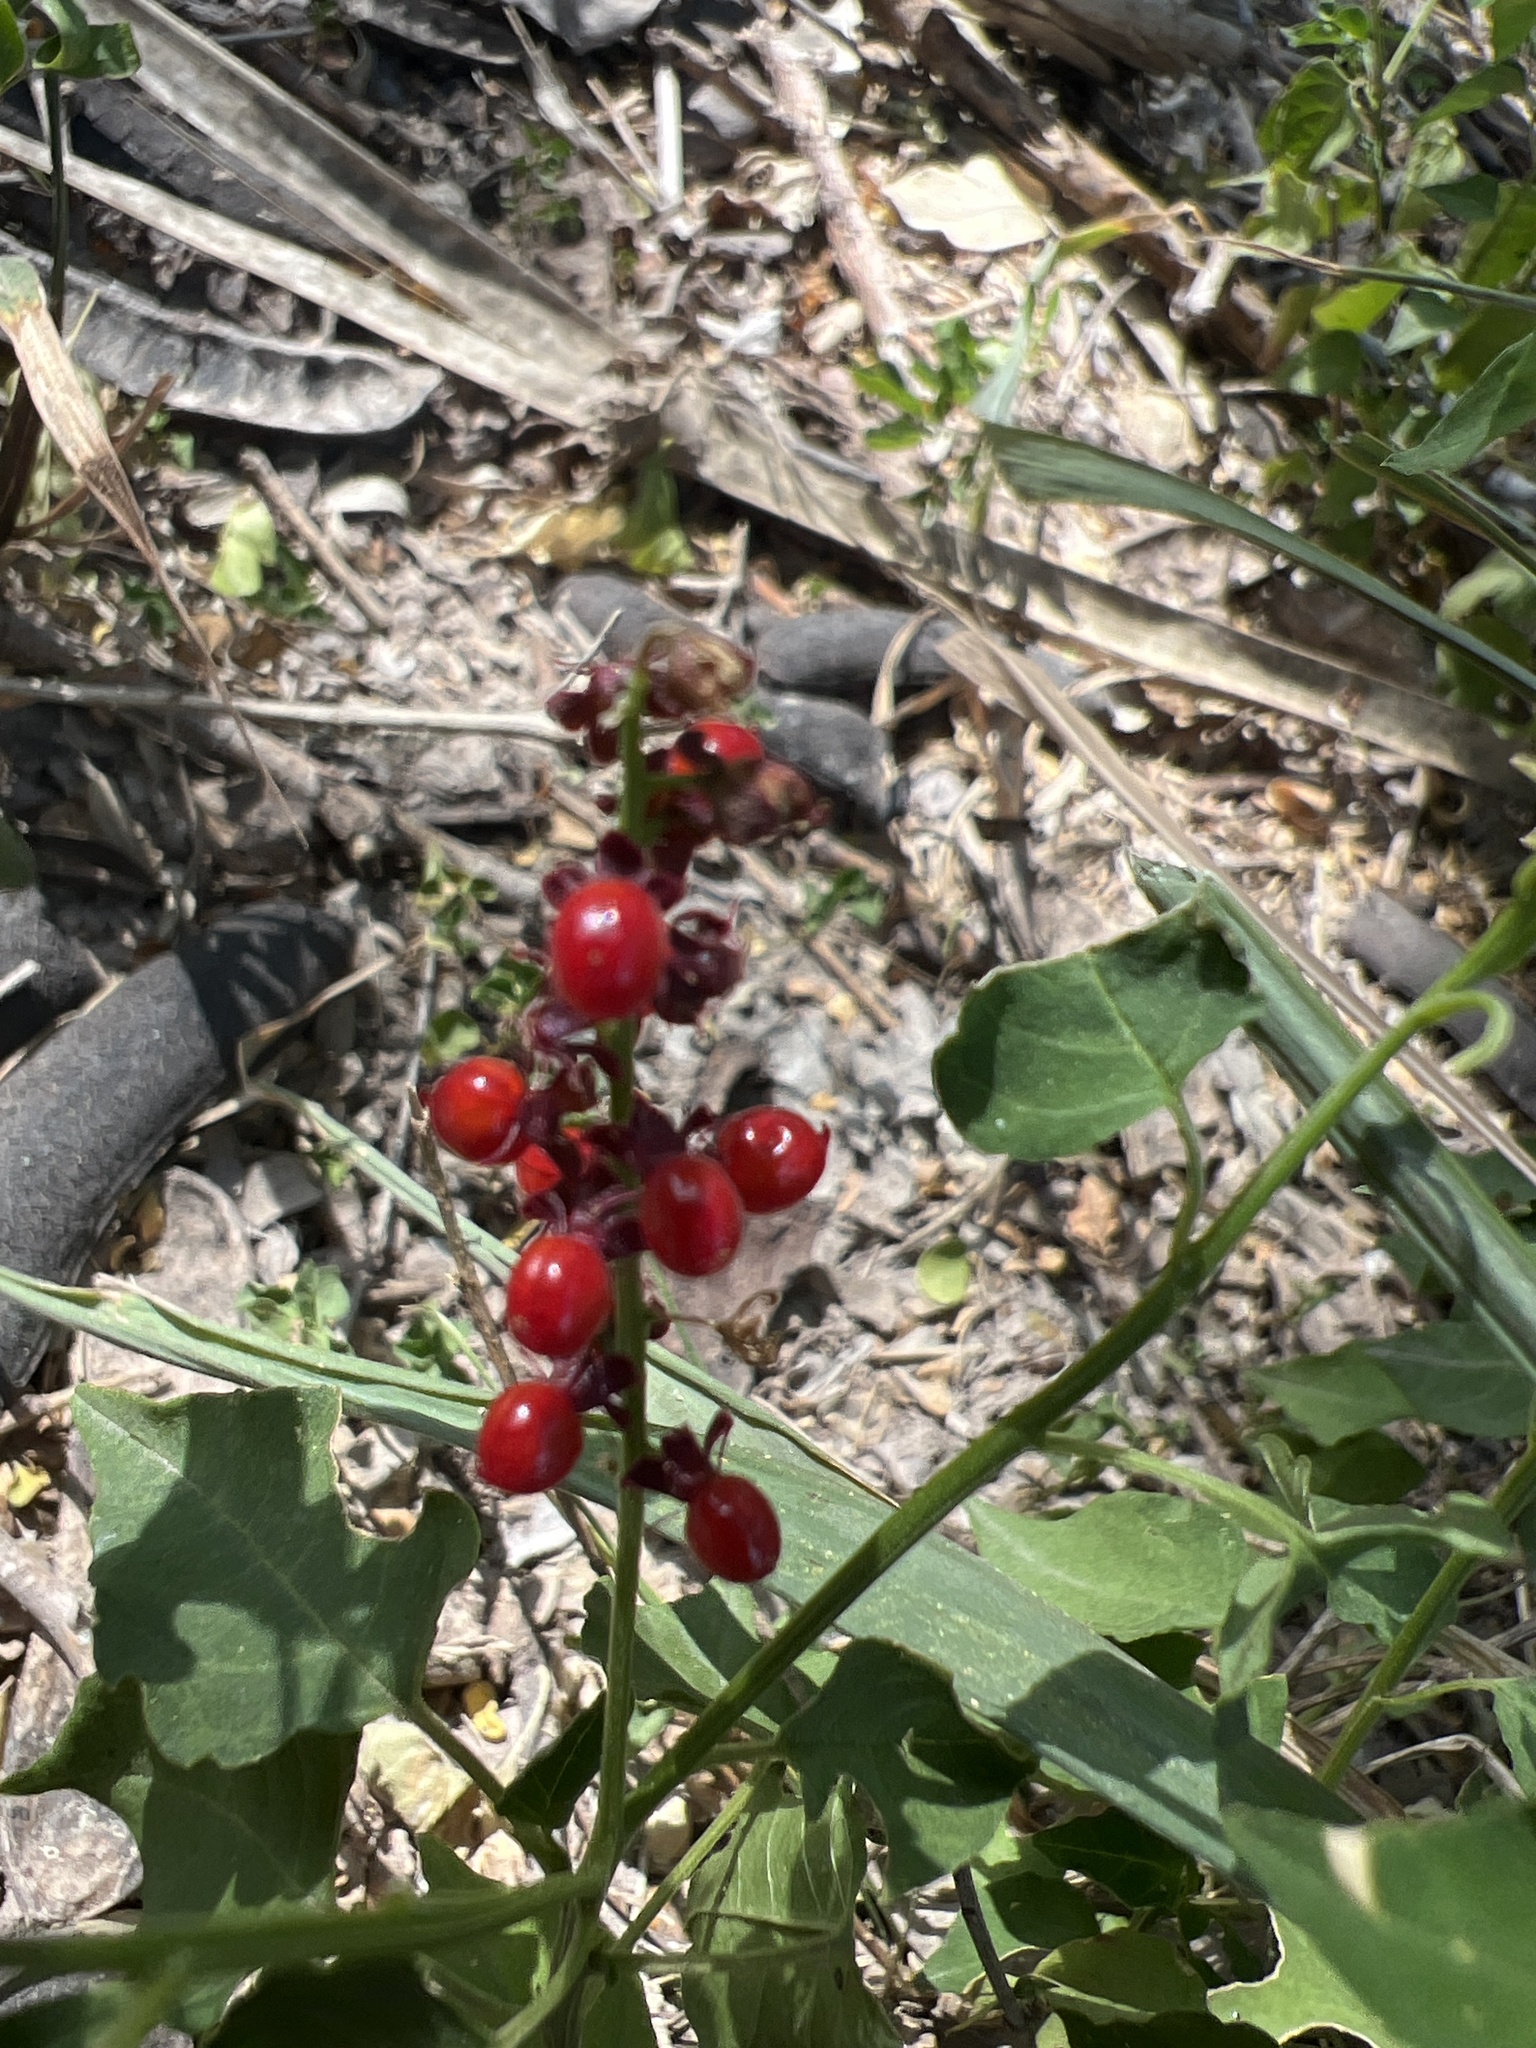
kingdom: Plantae
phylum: Tracheophyta
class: Magnoliopsida
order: Caryophyllales
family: Phytolaccaceae
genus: Rivina
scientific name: Rivina humilis
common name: Rougeplant
